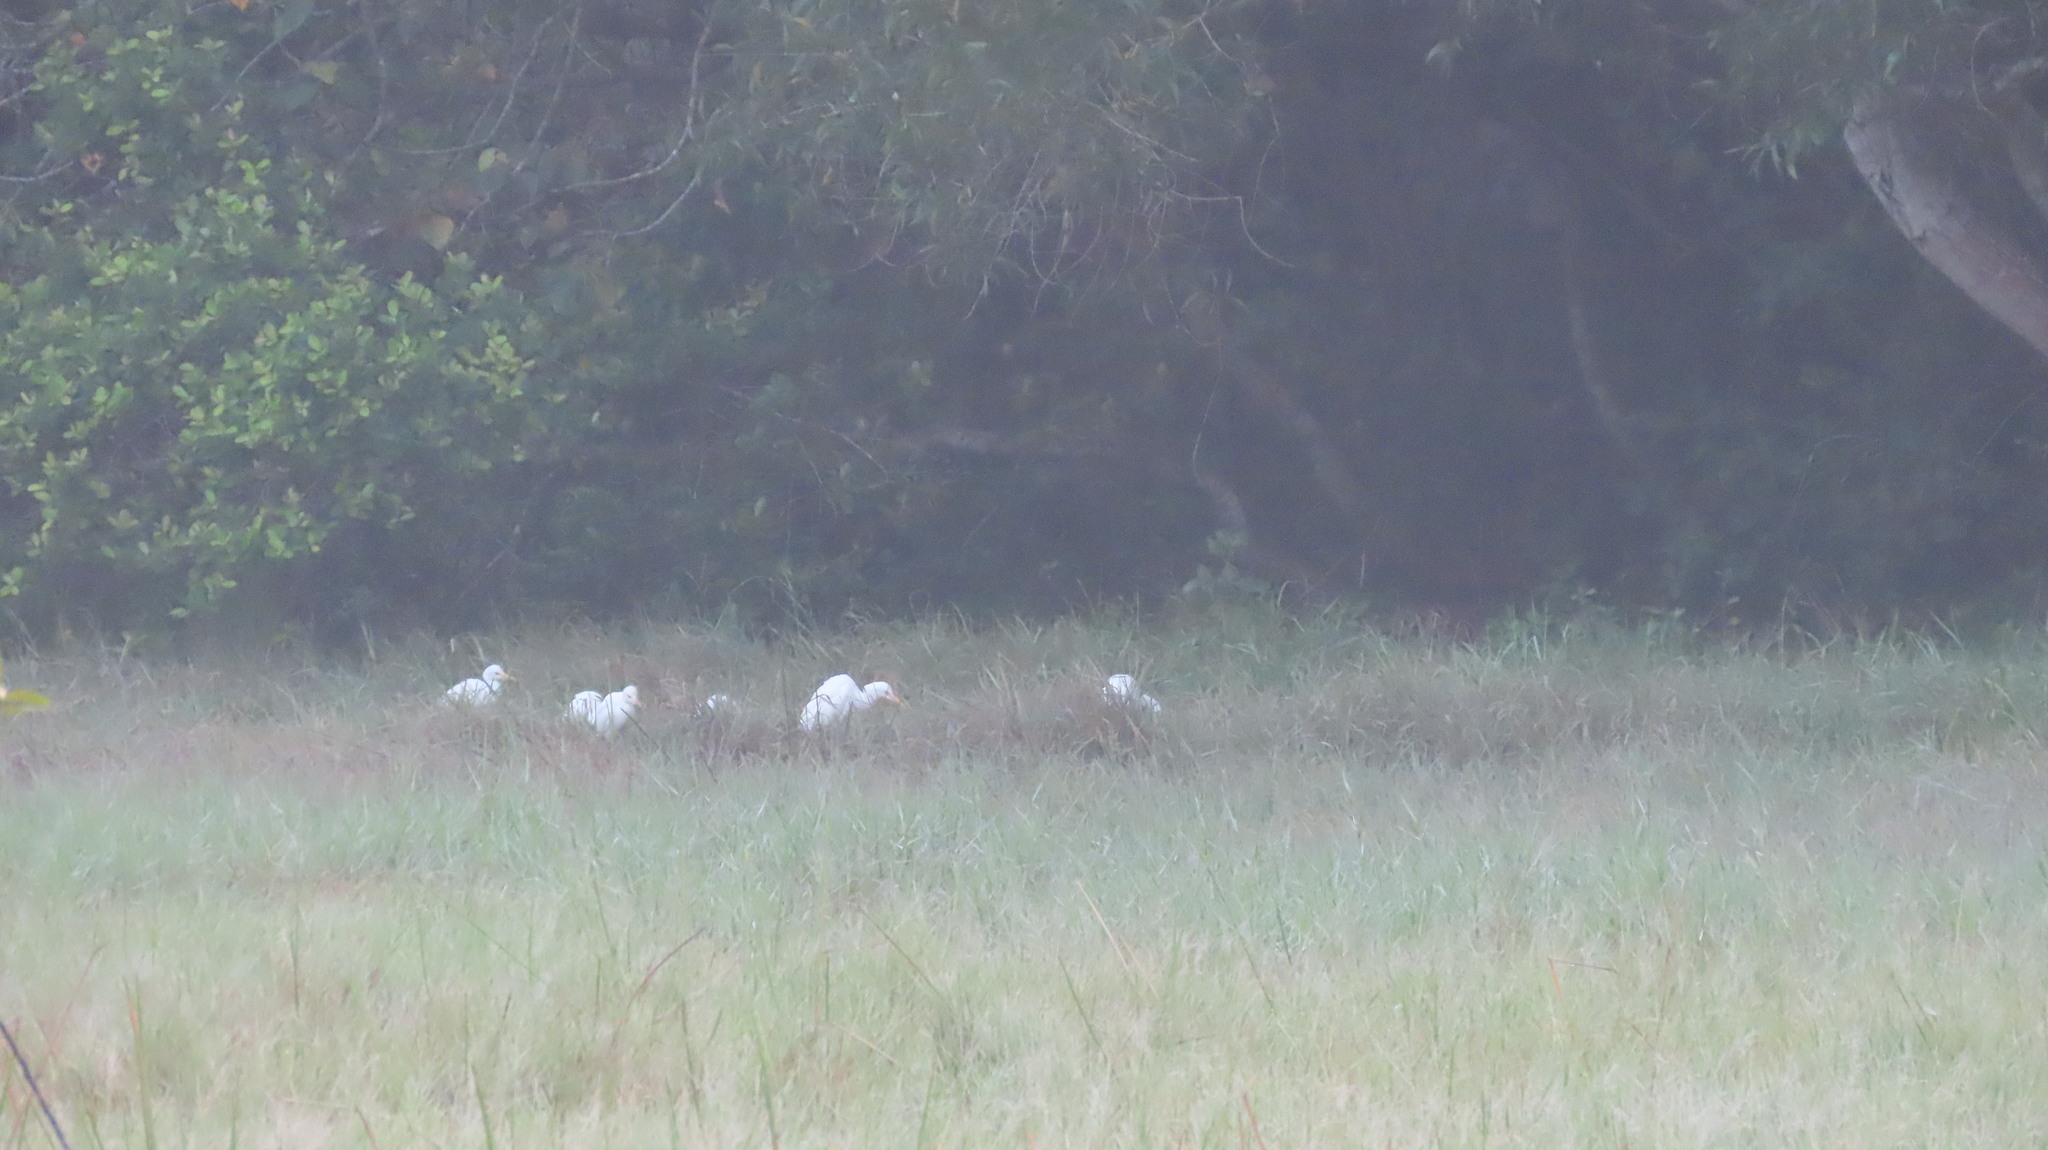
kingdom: Animalia
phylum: Chordata
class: Aves
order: Pelecaniformes
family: Ardeidae
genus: Bubulcus
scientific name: Bubulcus coromandus
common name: Eastern cattle egret
